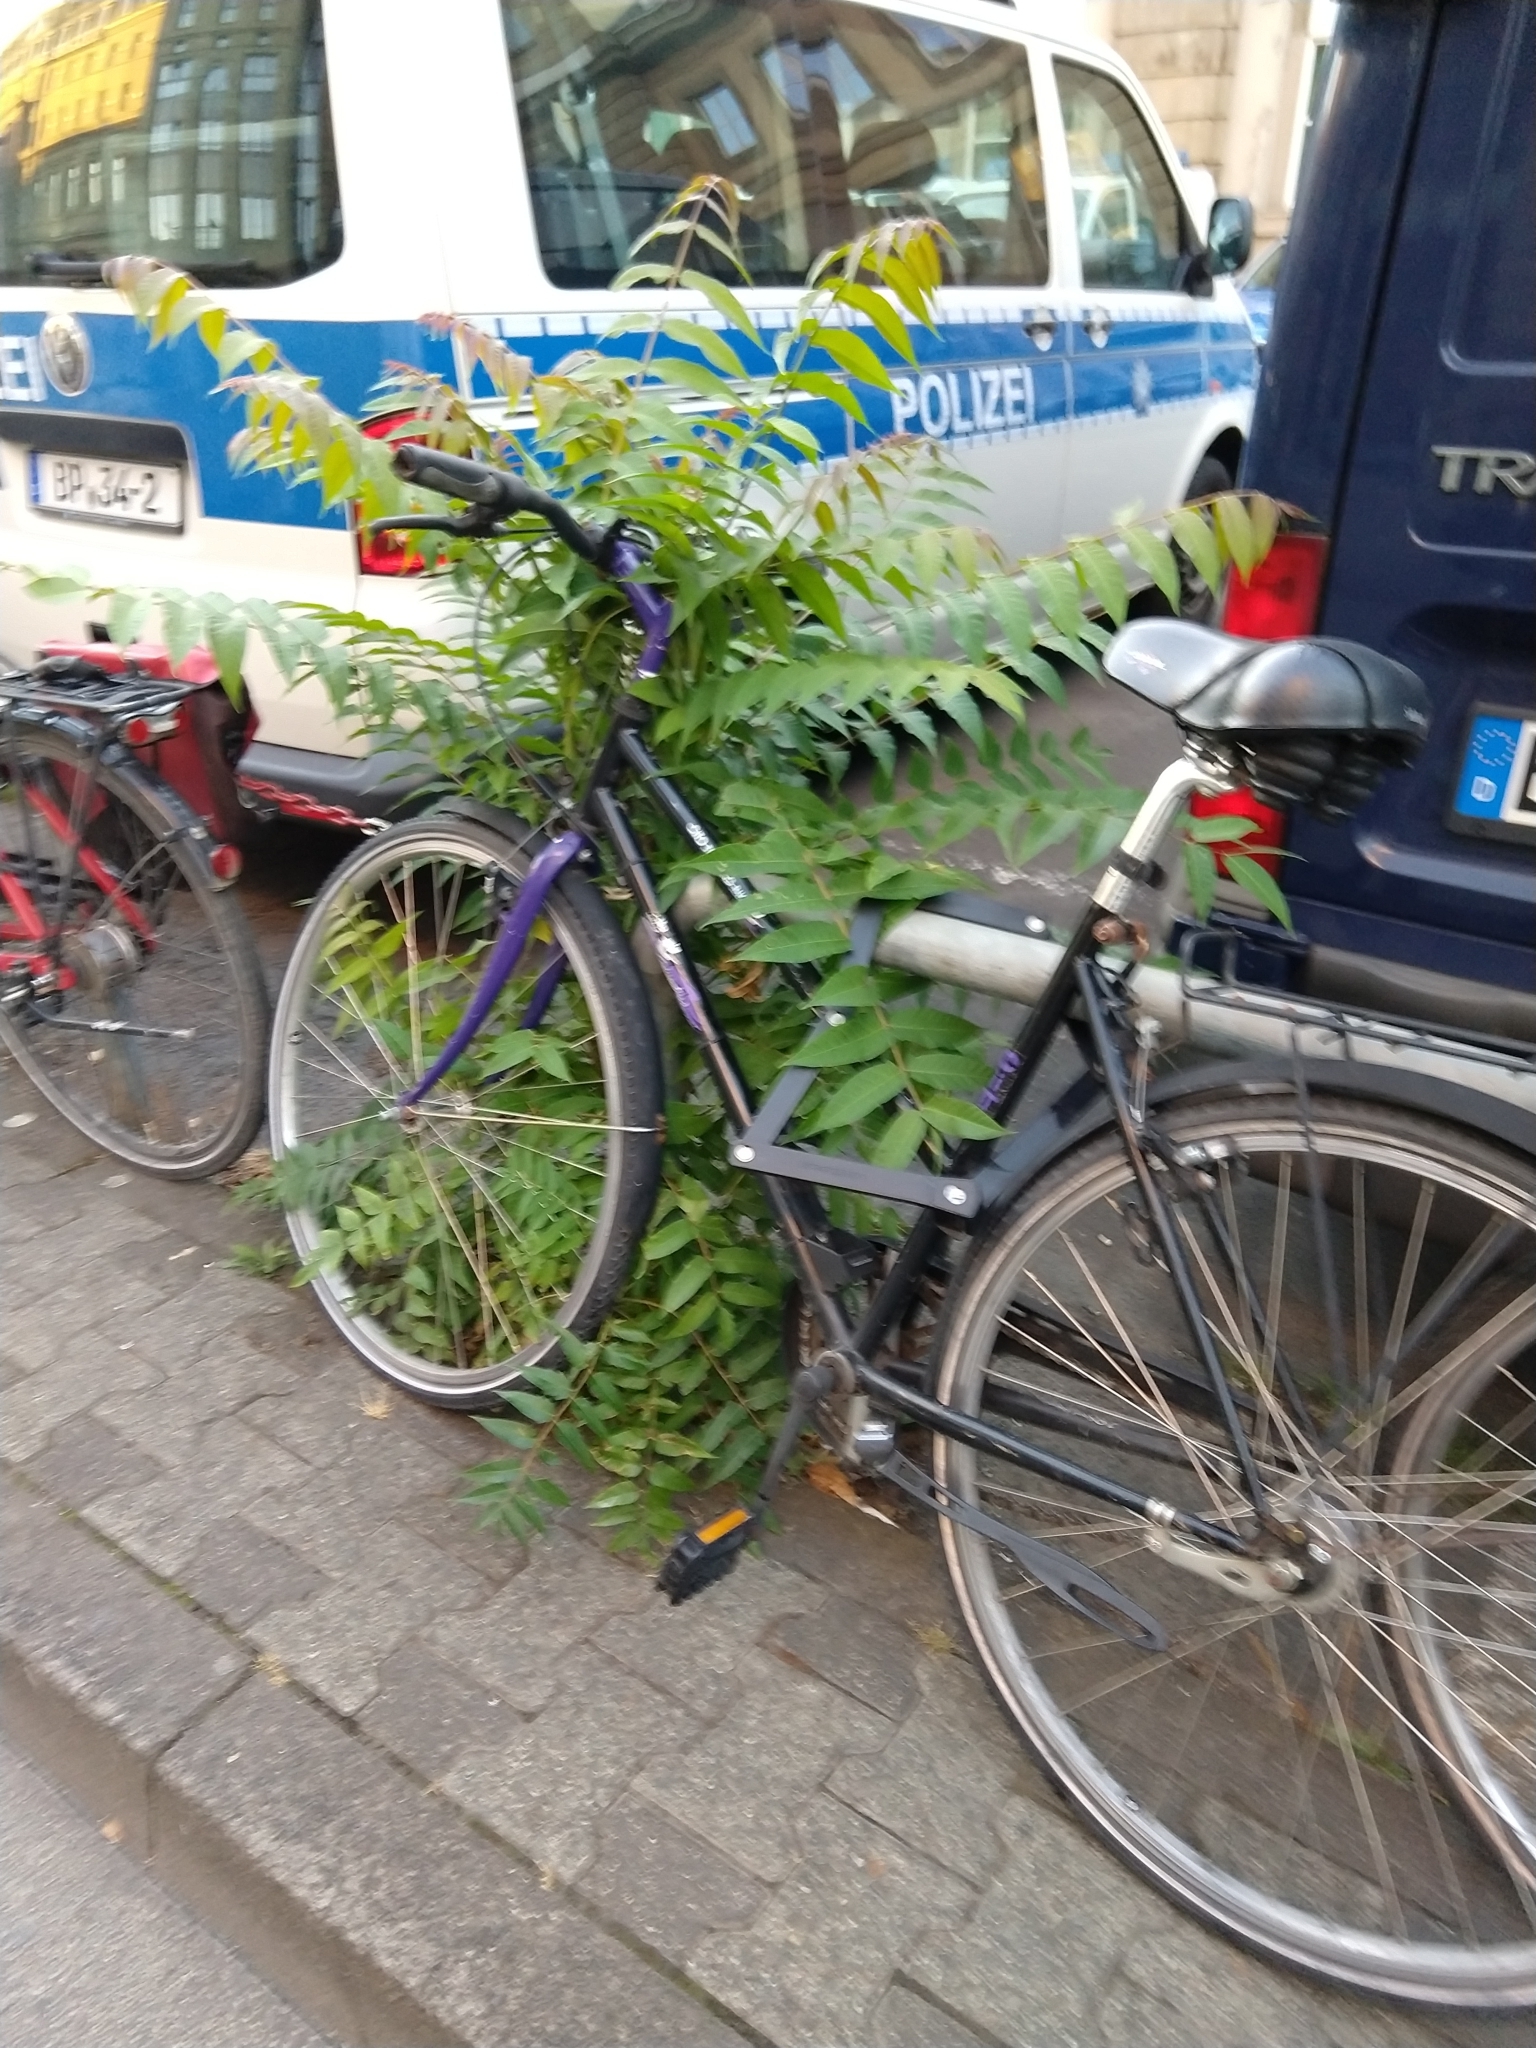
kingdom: Plantae
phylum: Tracheophyta
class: Magnoliopsida
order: Sapindales
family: Simaroubaceae
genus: Ailanthus
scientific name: Ailanthus altissima
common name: Tree-of-heaven
